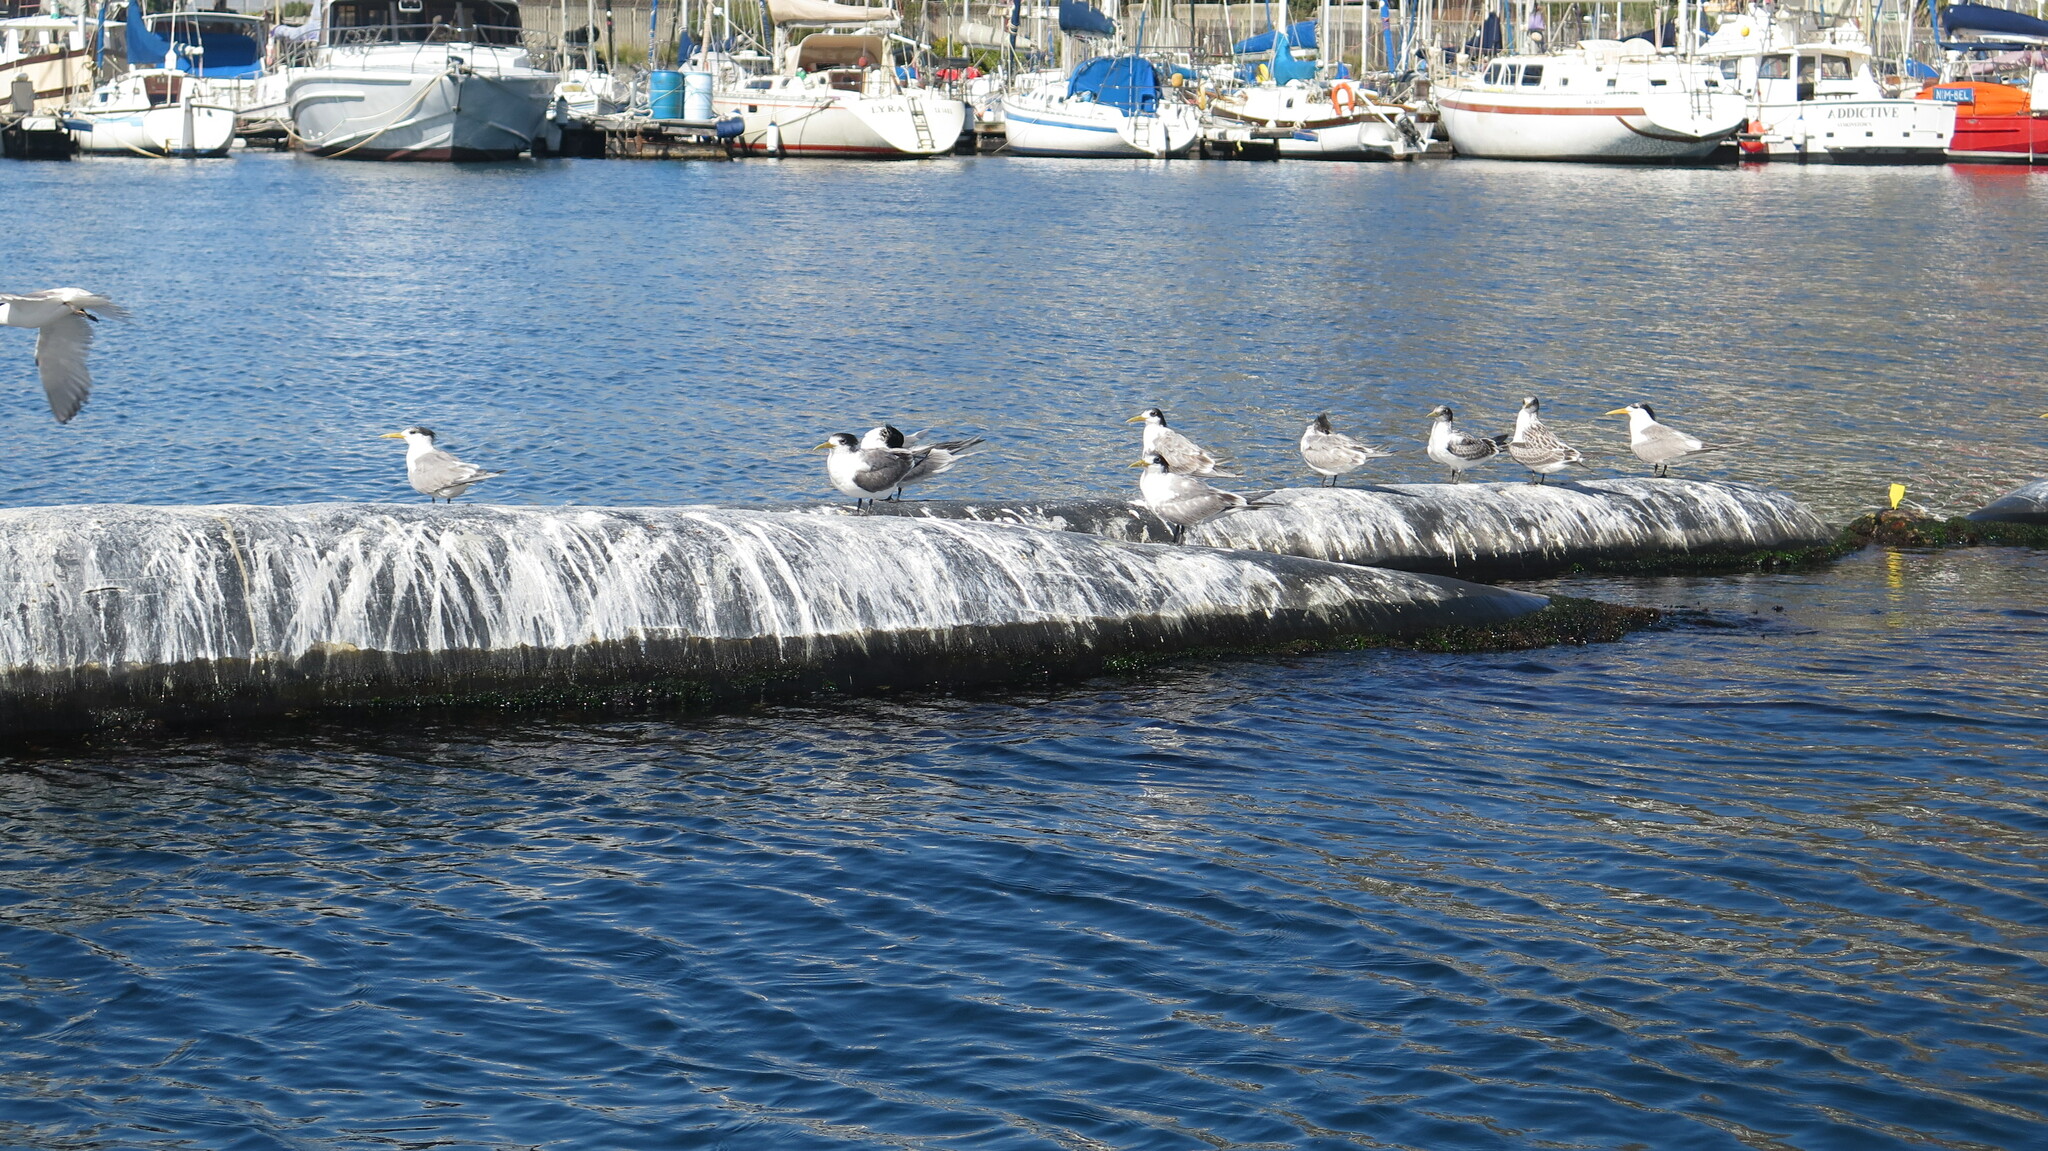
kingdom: Animalia
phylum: Chordata
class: Aves
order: Charadriiformes
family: Laridae
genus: Thalasseus
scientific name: Thalasseus bergii
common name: Greater crested tern
